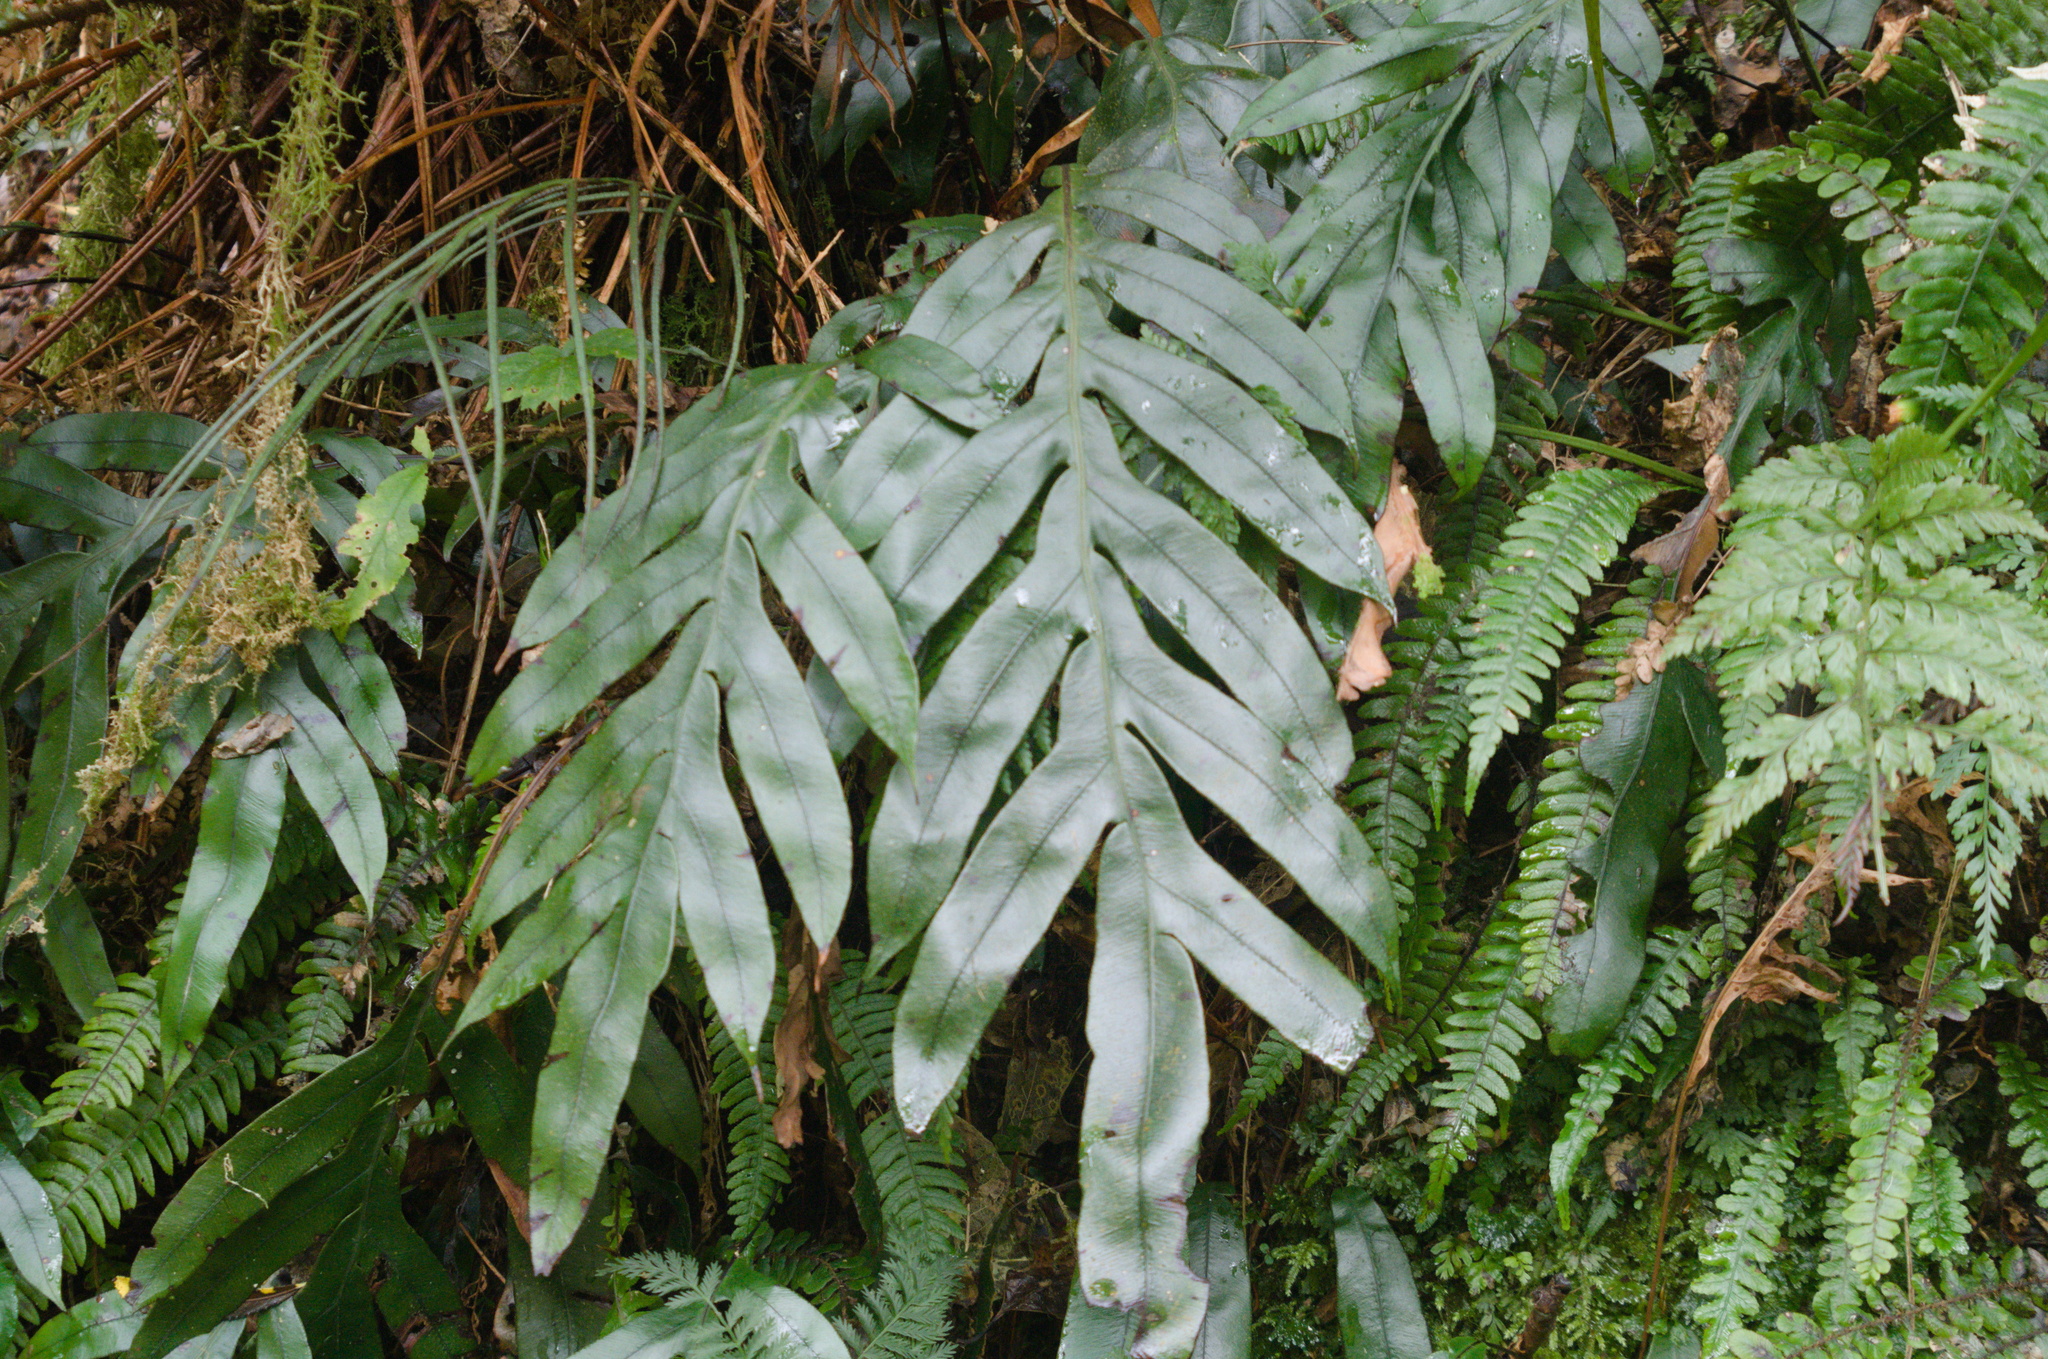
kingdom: Plantae
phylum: Tracheophyta
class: Polypodiopsida
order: Polypodiales
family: Blechnaceae
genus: Austroblechnum
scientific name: Austroblechnum colensoi
